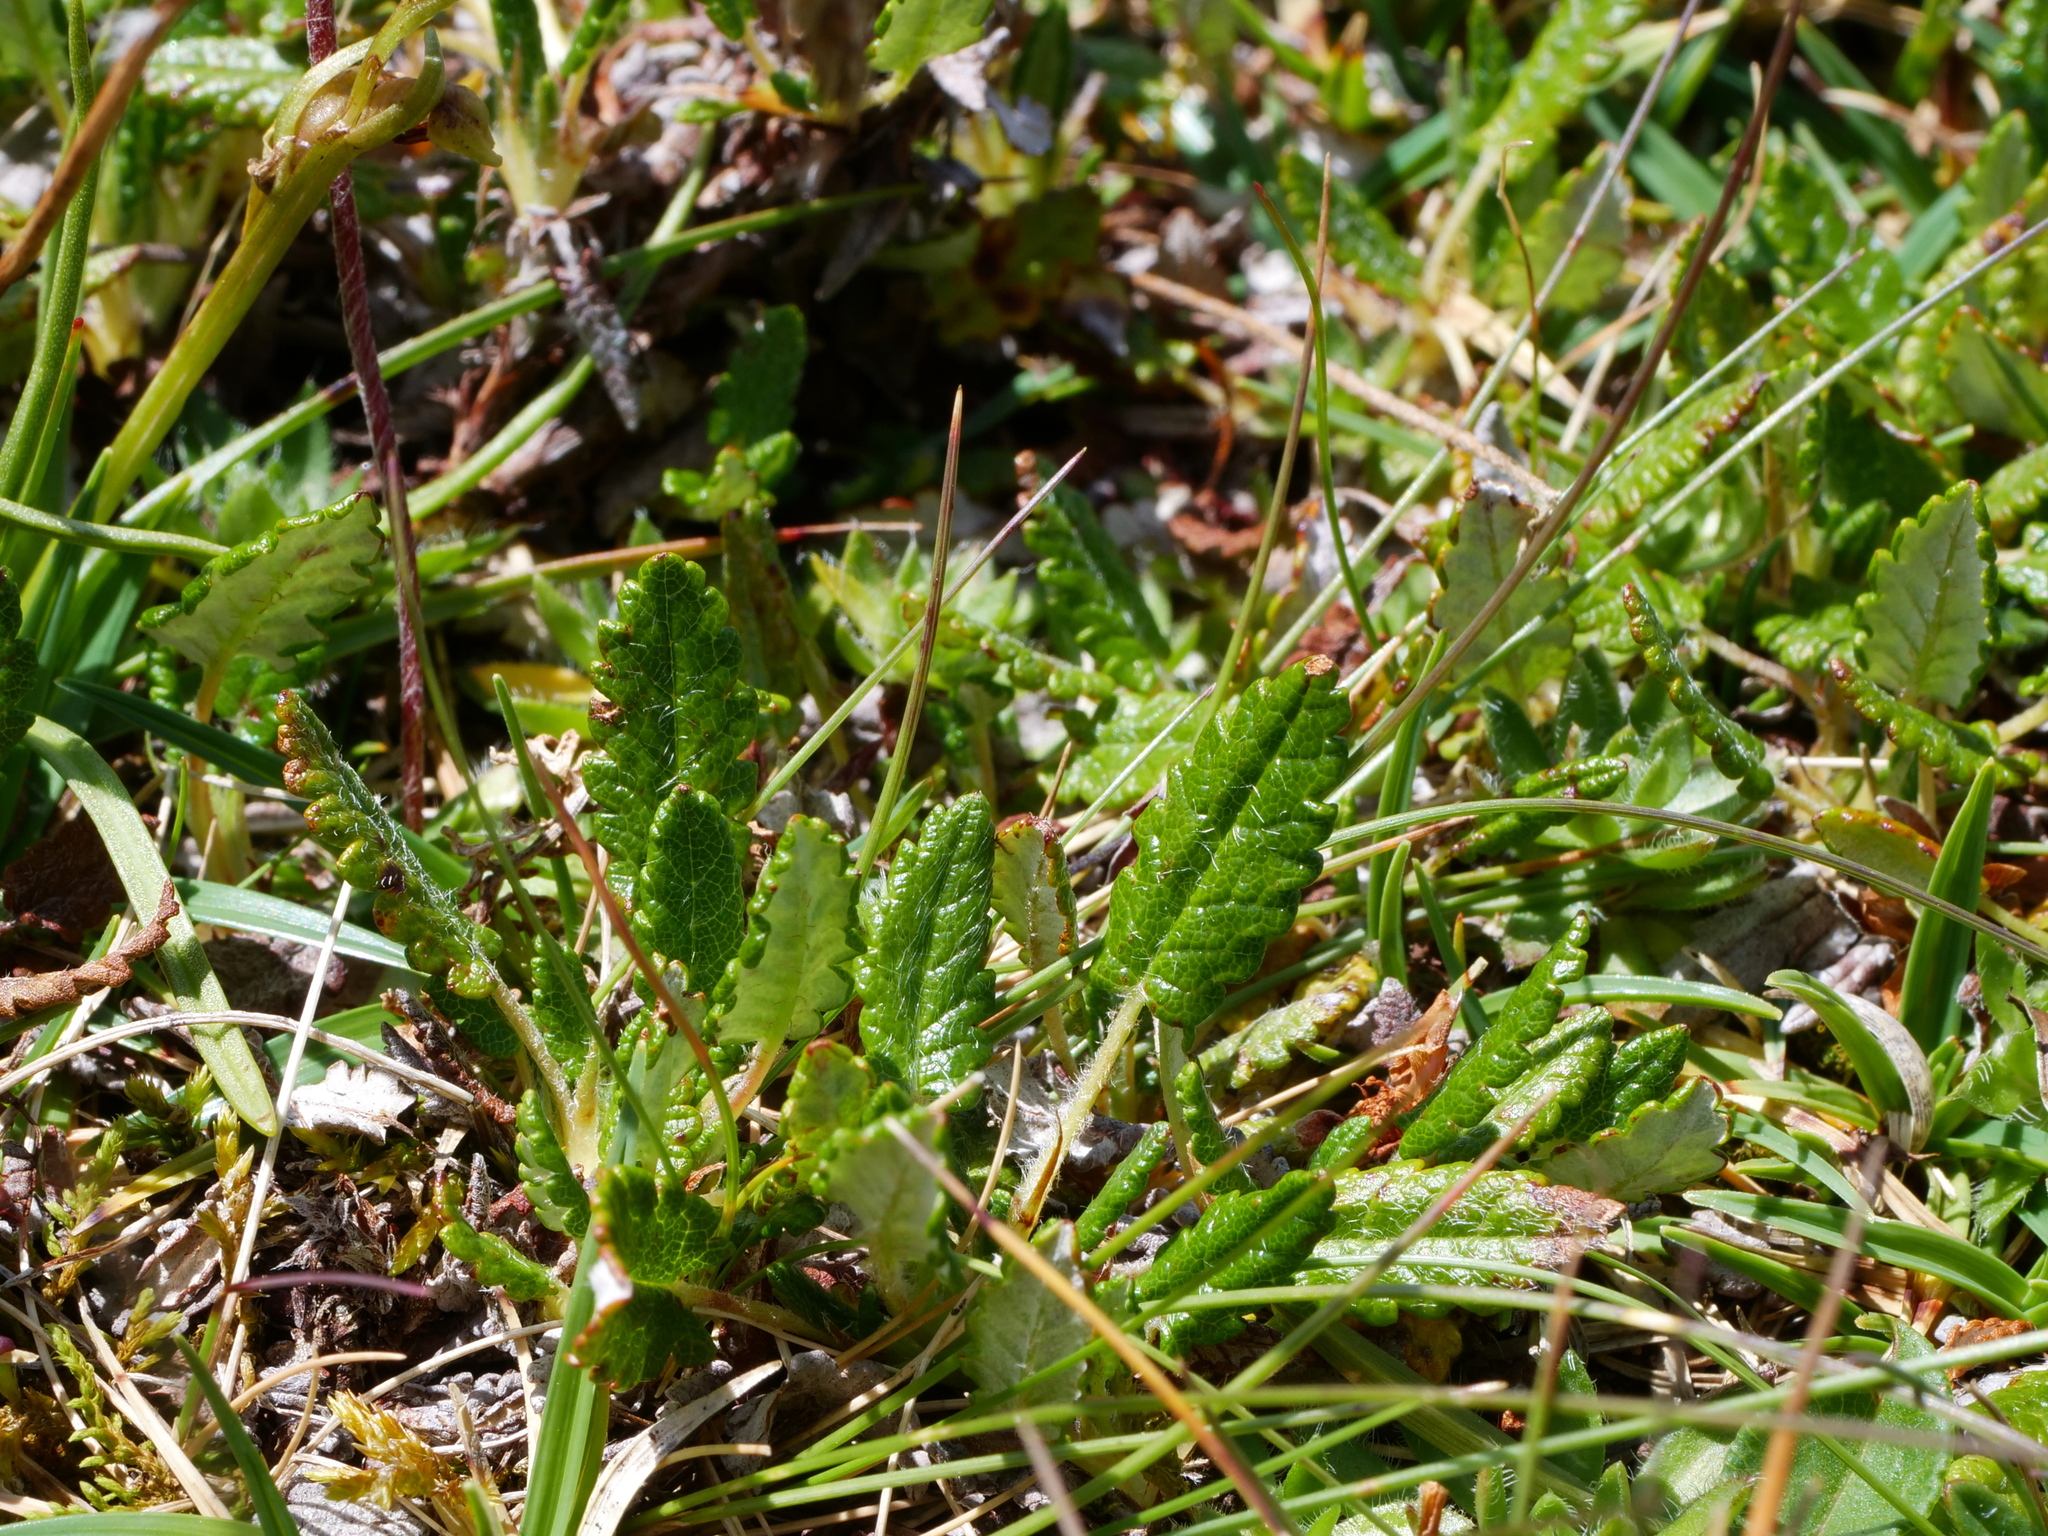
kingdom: Plantae
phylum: Tracheophyta
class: Magnoliopsida
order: Rosales
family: Rosaceae
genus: Dryas
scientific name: Dryas octopetala
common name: Eight-petal mountain-avens
